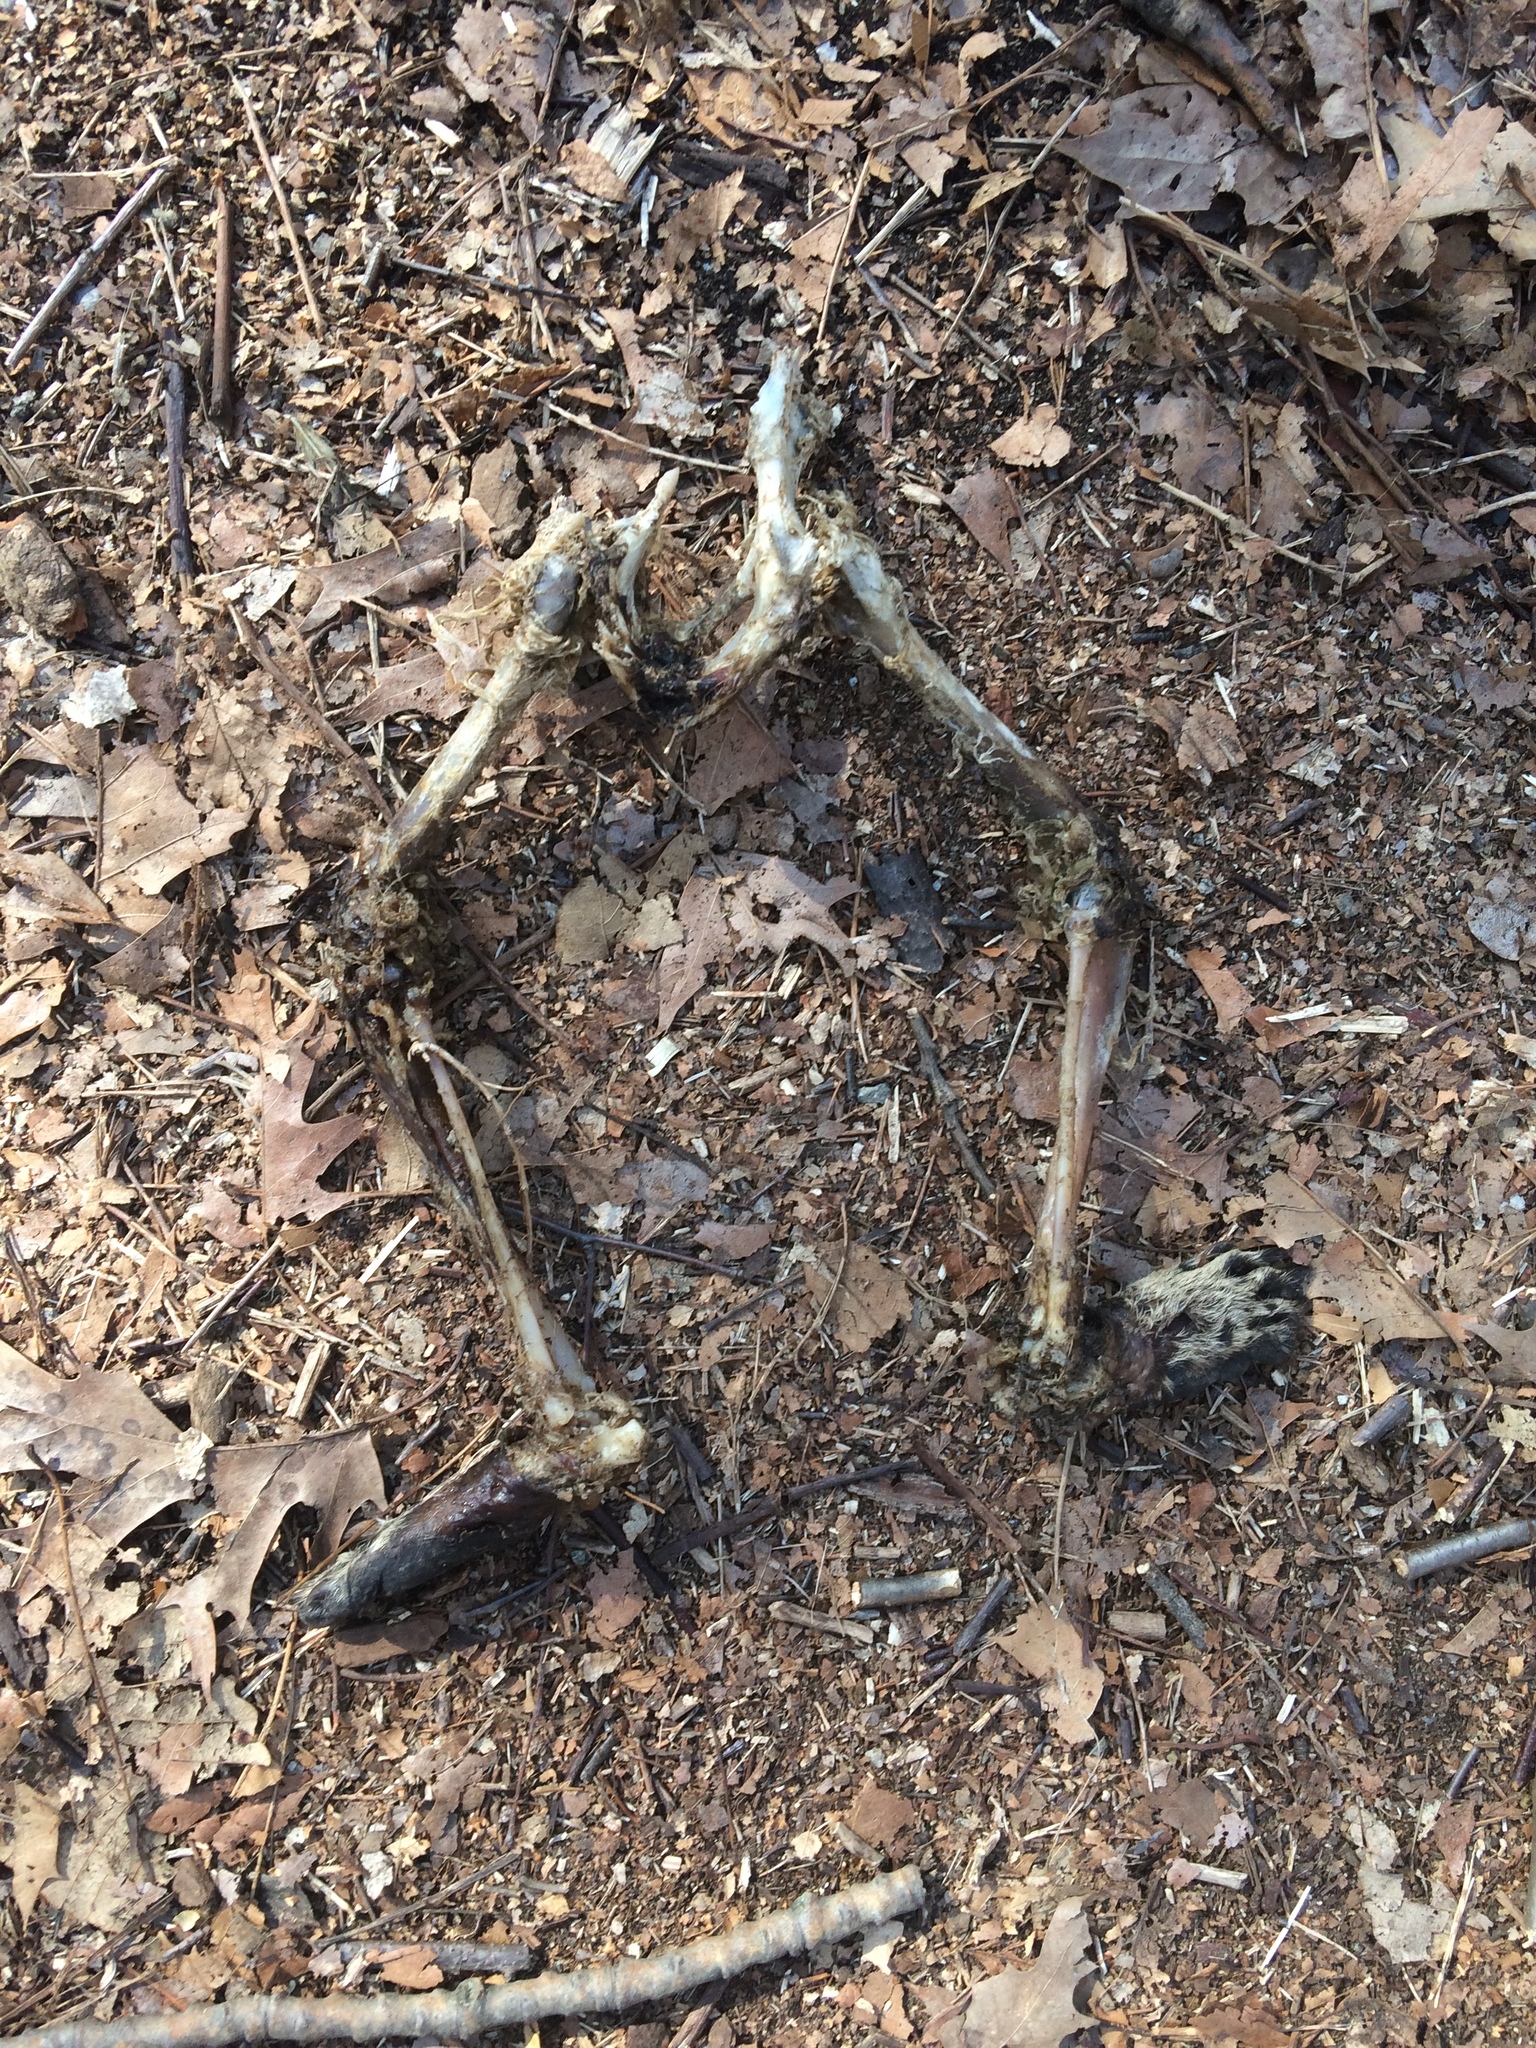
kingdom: Animalia
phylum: Chordata
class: Mammalia
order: Carnivora
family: Procyonidae
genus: Procyon
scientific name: Procyon lotor
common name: Raccoon
